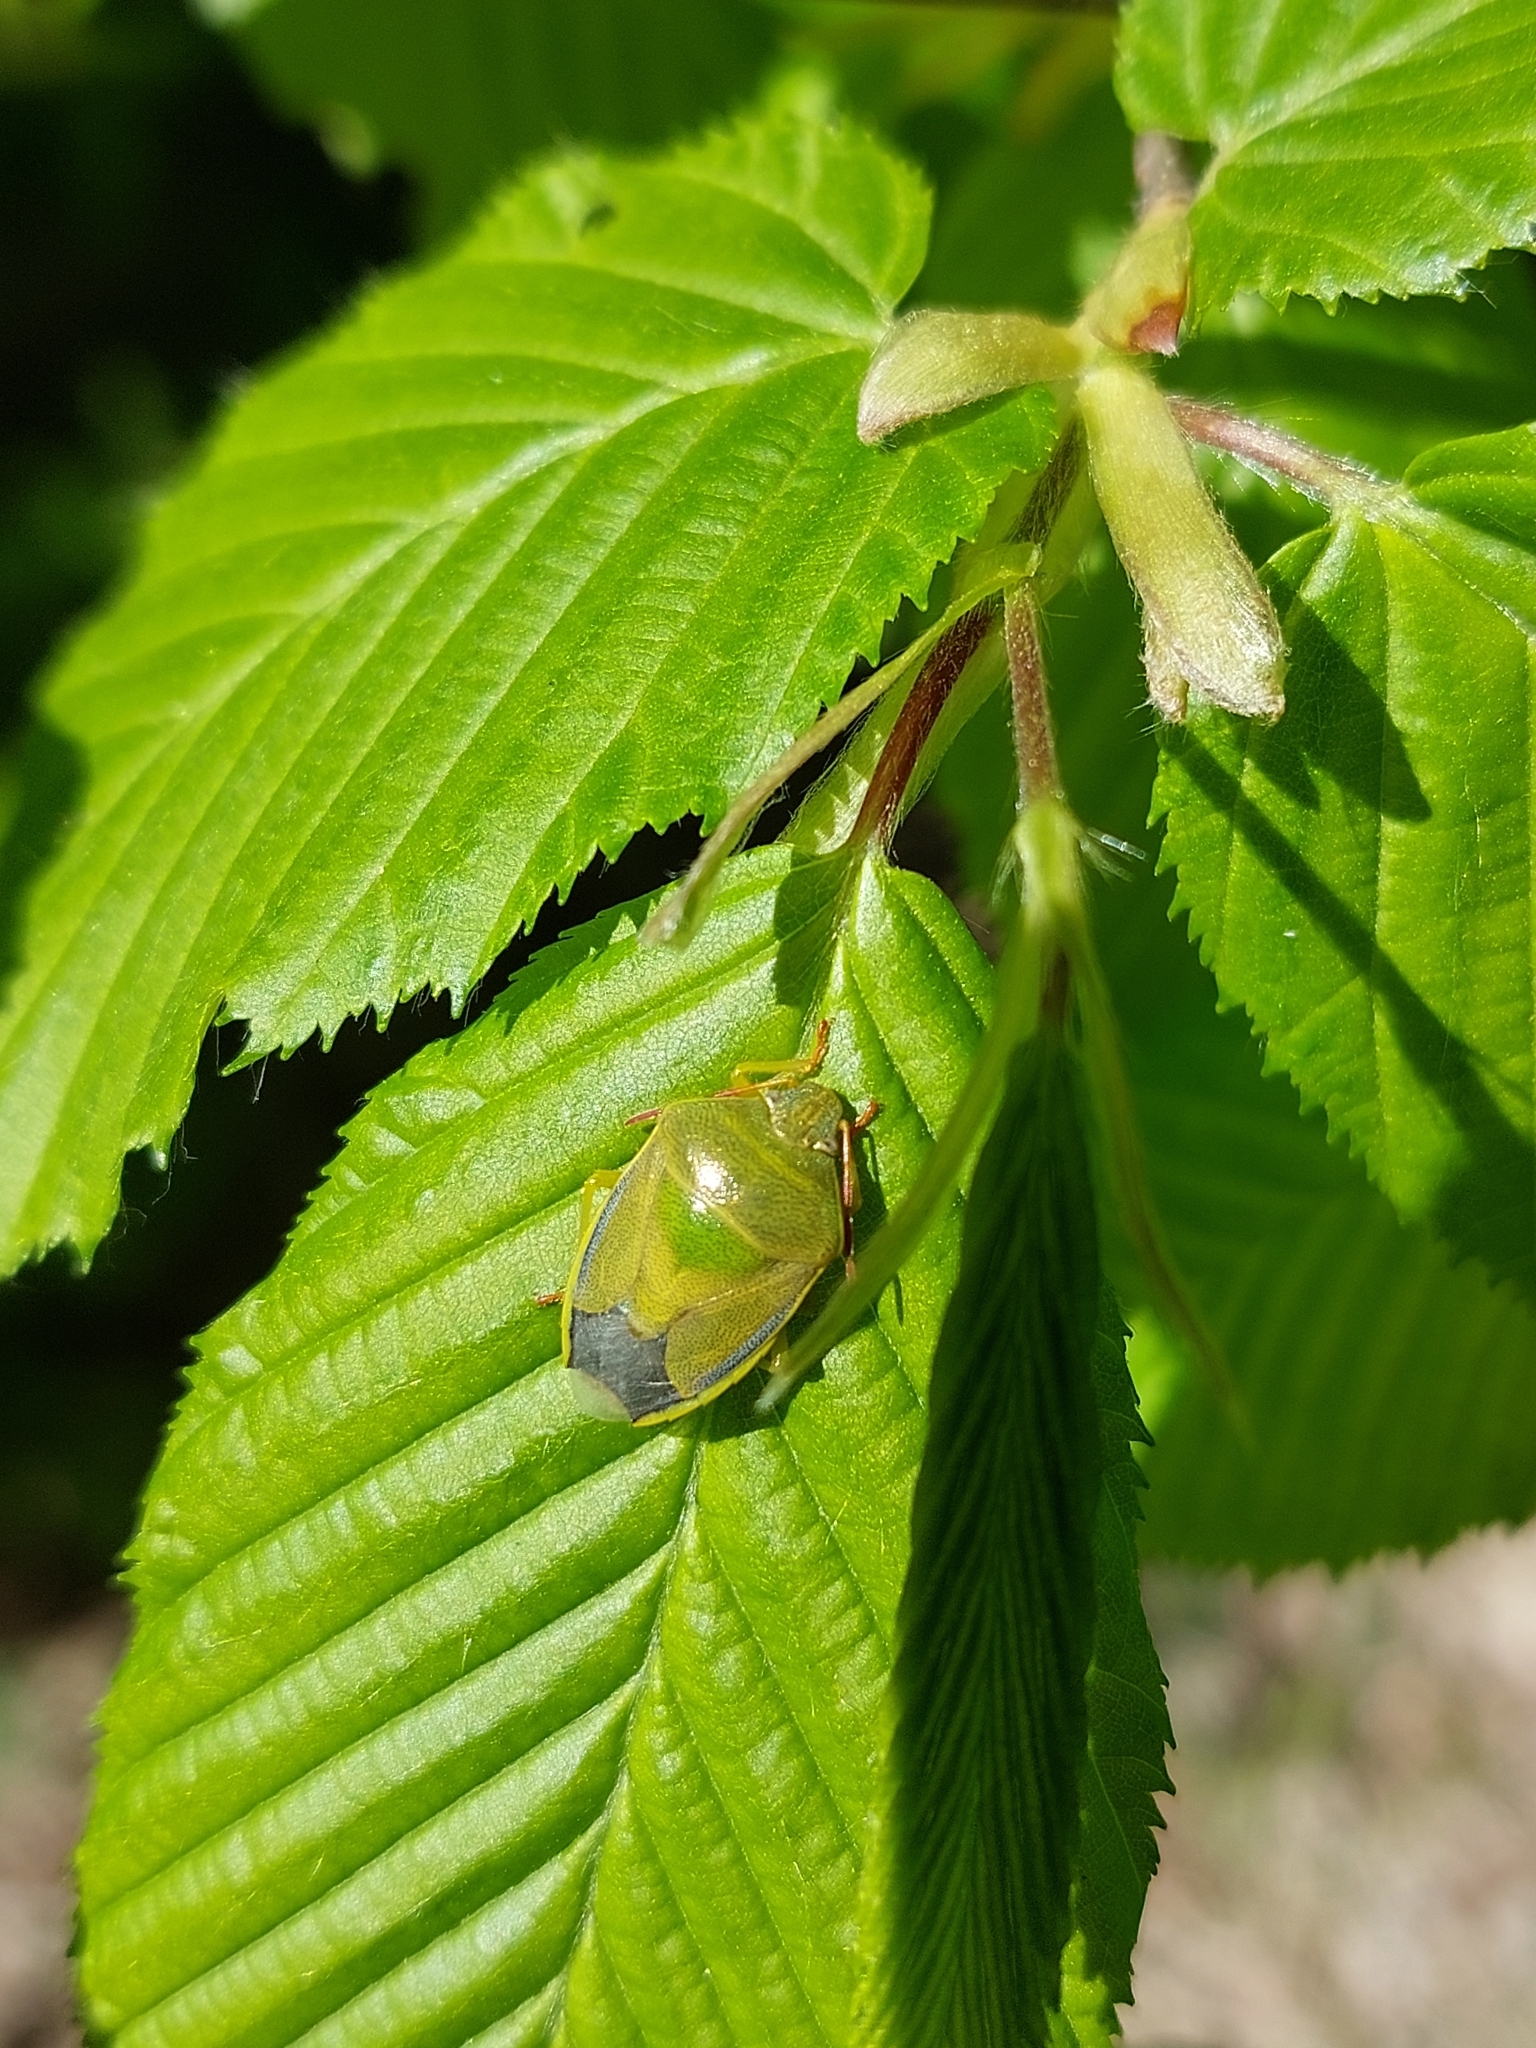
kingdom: Animalia
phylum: Arthropoda
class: Insecta
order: Hemiptera
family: Pentatomidae
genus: Piezodorus
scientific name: Piezodorus lituratus
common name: Stink bug
